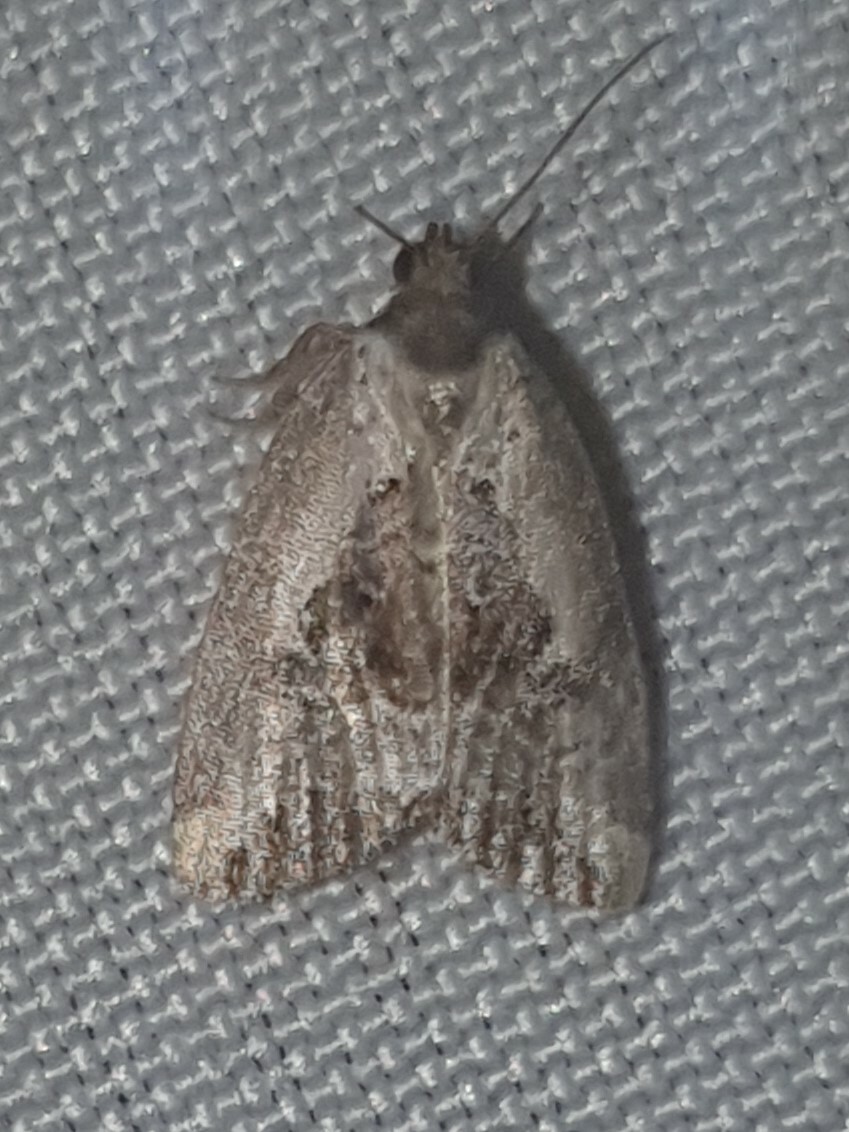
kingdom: Animalia
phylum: Arthropoda
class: Insecta
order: Lepidoptera
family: Noctuidae
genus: Elaphria
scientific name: Elaphria venustula
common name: Rosy marbled
